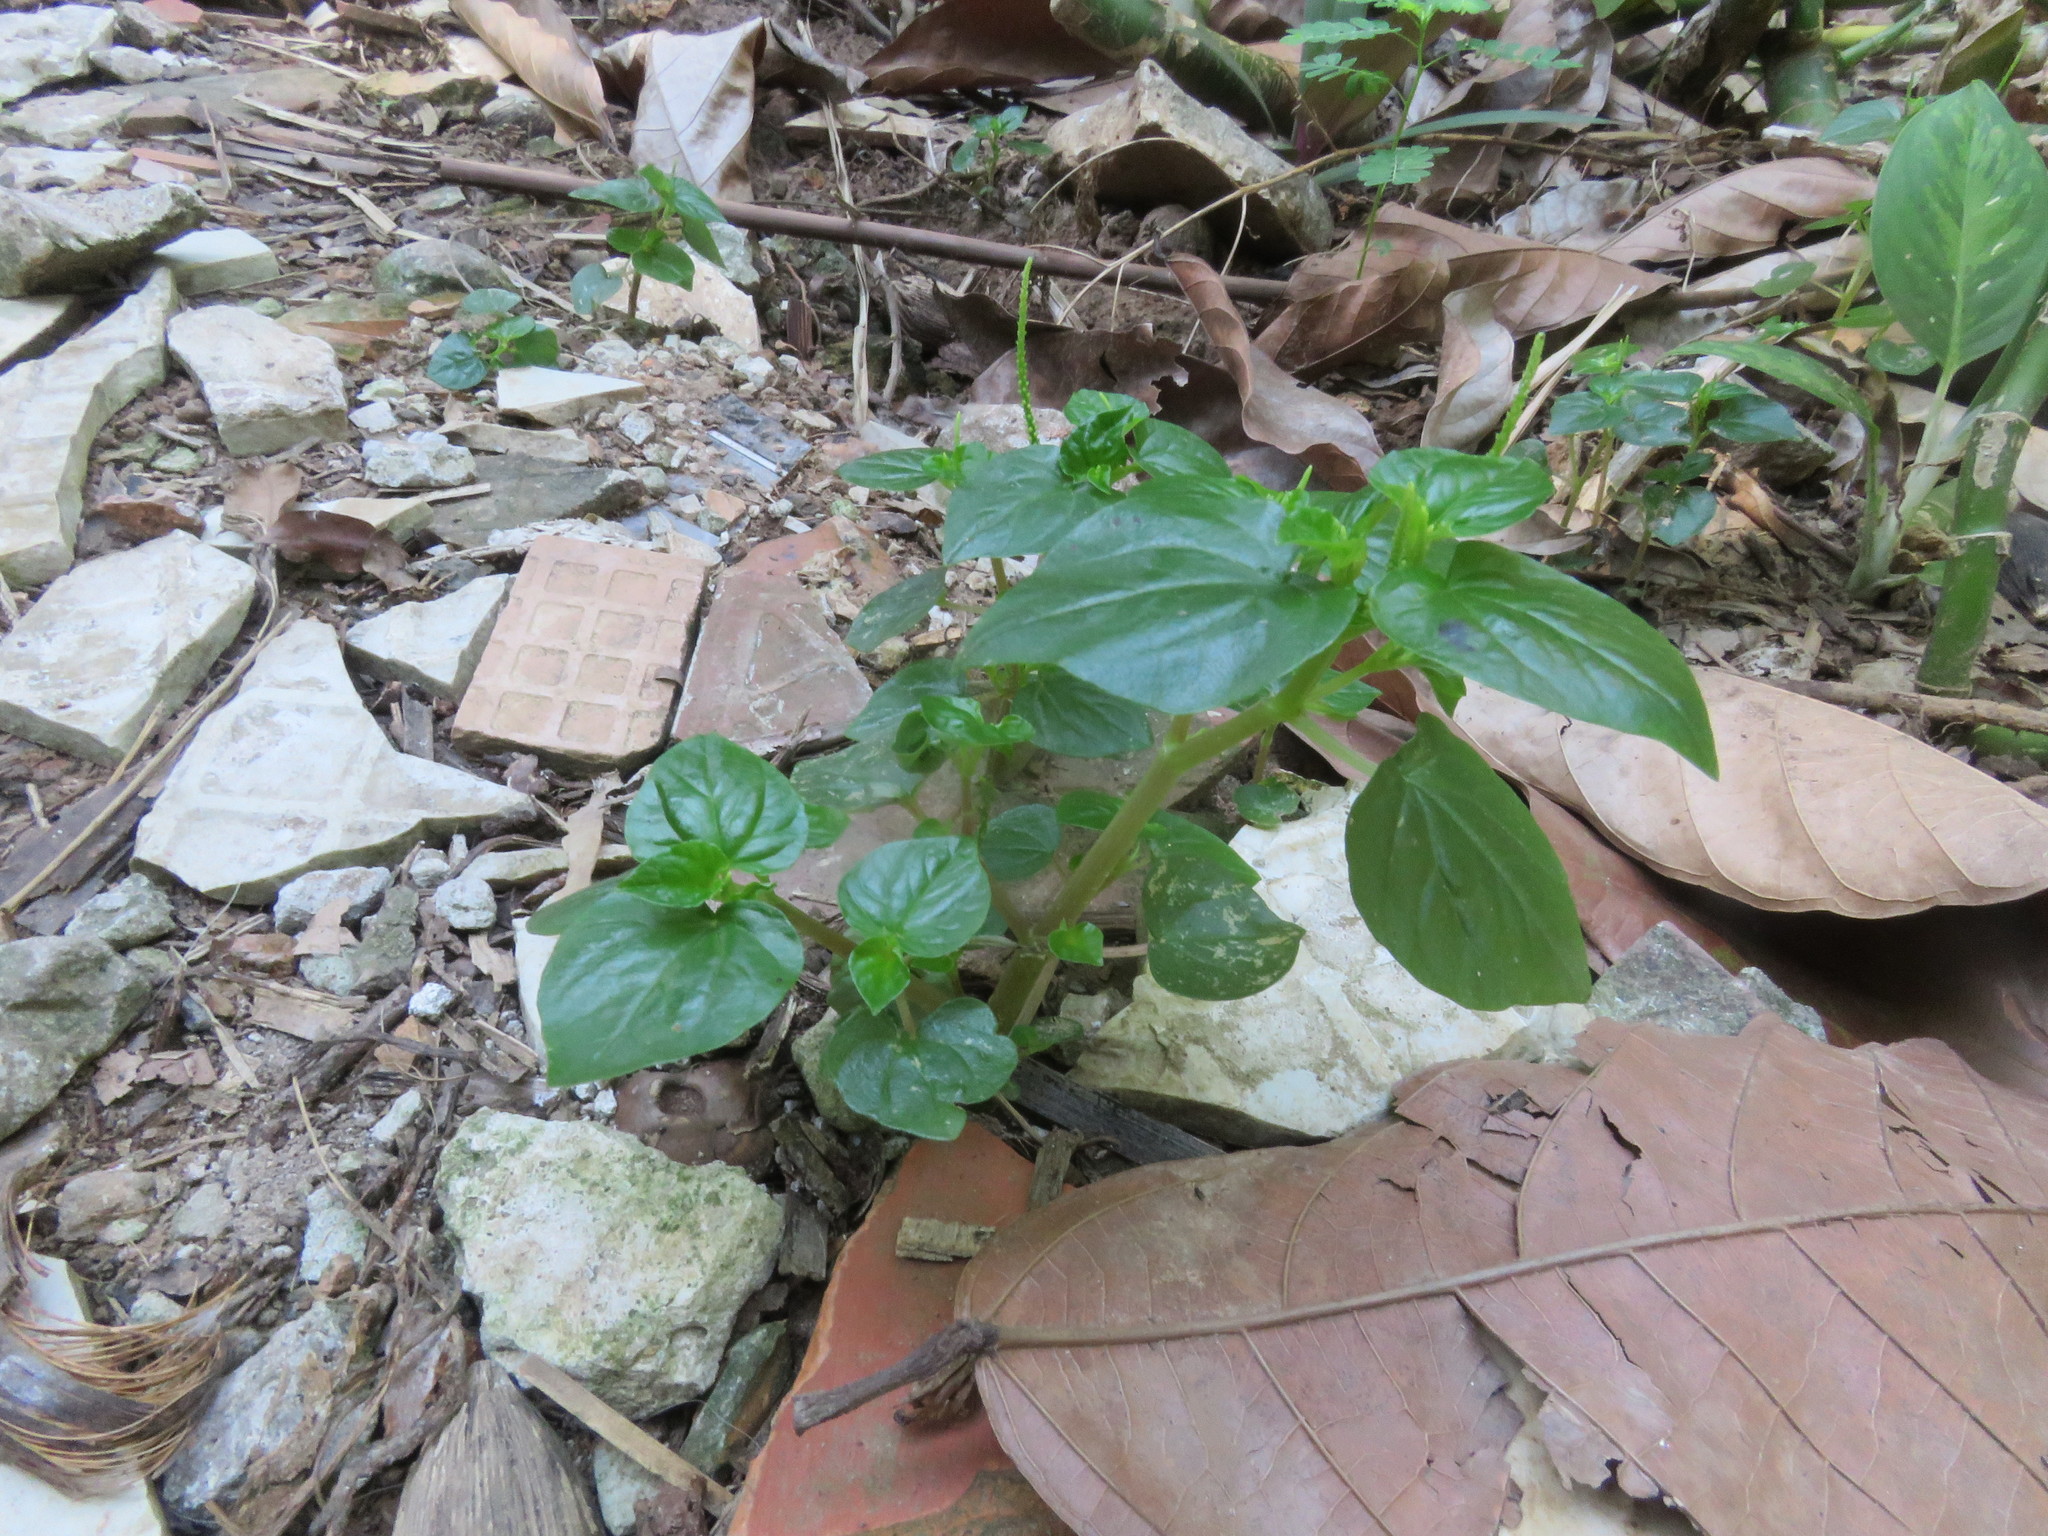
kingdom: Plantae
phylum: Tracheophyta
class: Magnoliopsida
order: Piperales
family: Piperaceae
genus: Peperomia
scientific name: Peperomia pellucida
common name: Man to man
